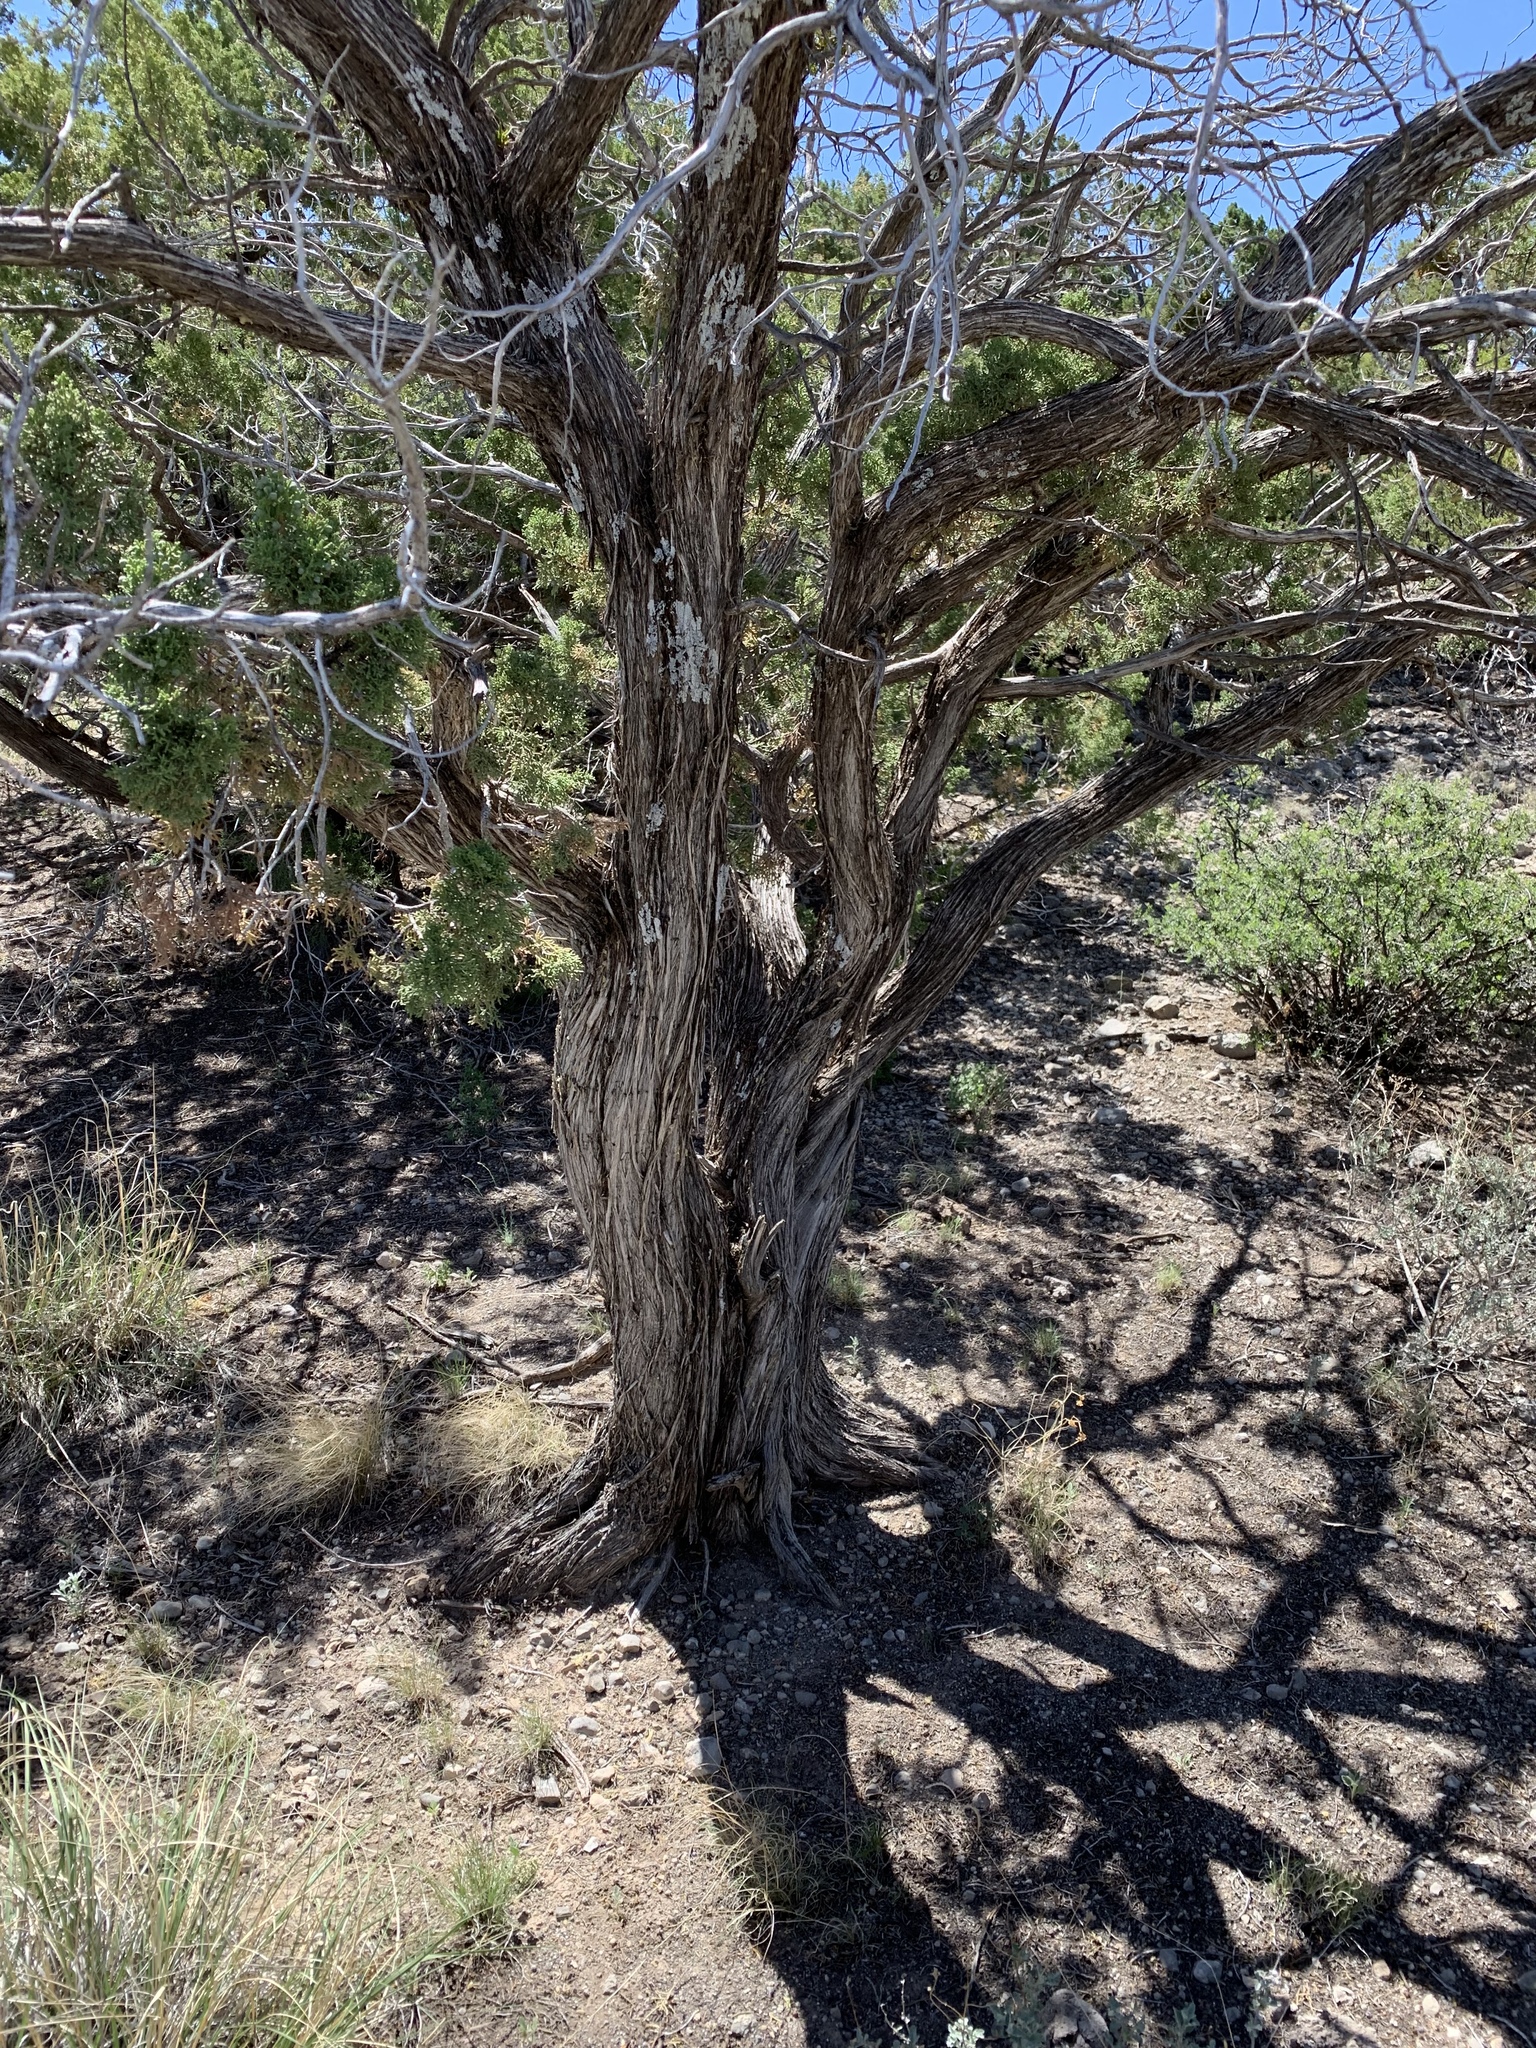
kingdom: Plantae
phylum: Tracheophyta
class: Pinopsida
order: Pinales
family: Cupressaceae
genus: Juniperus
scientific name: Juniperus monosperma
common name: One-seed juniper
